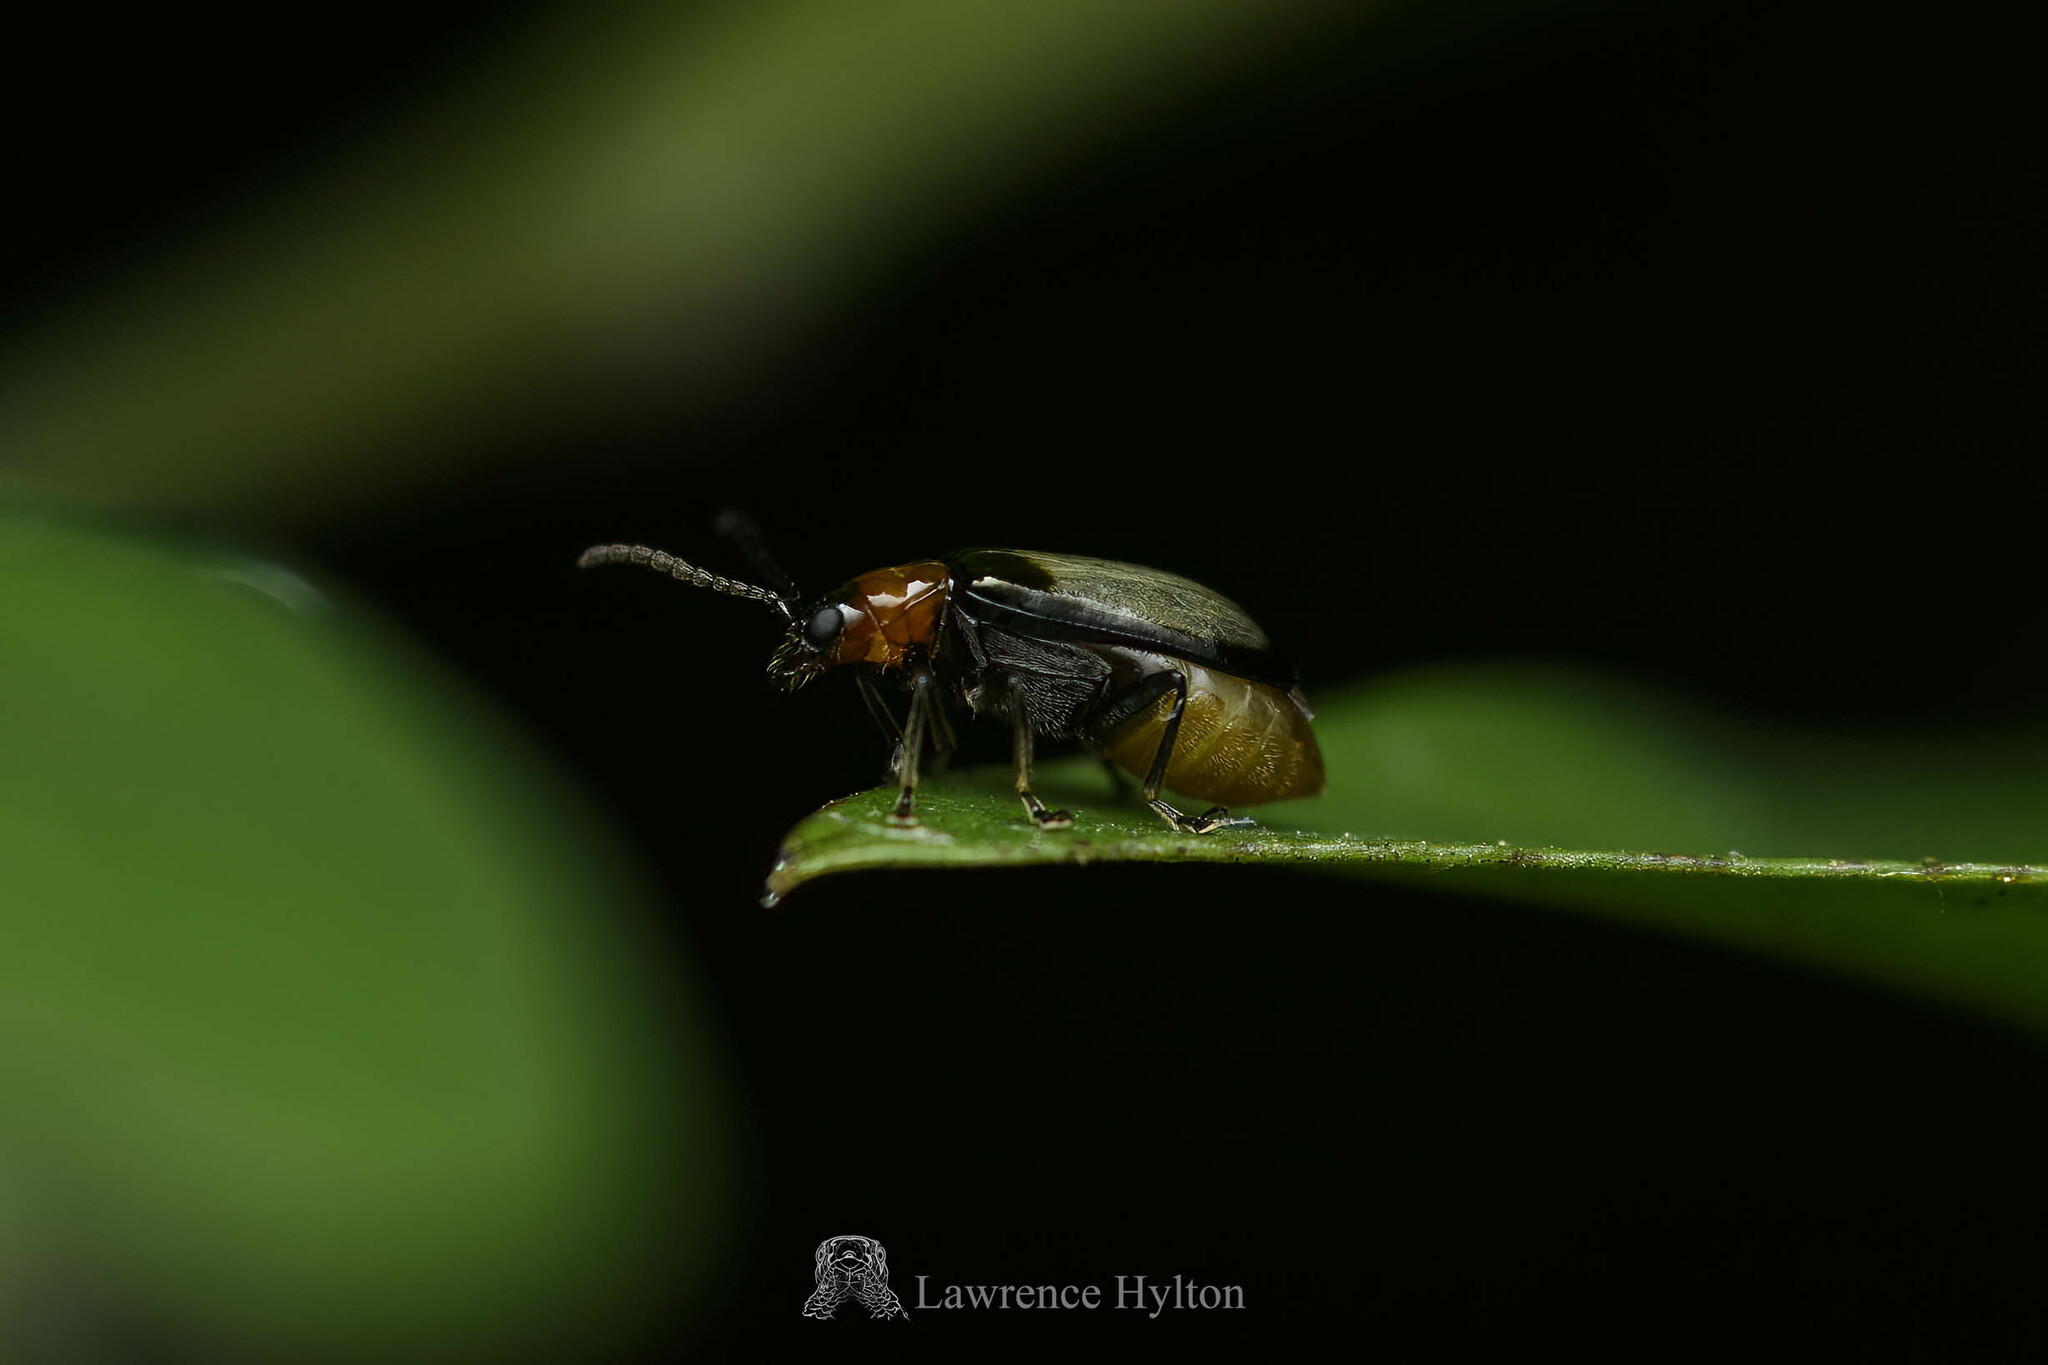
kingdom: Animalia
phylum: Arthropoda
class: Insecta
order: Coleoptera
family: Chrysomelidae
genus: Cerophysa
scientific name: Cerophysa
